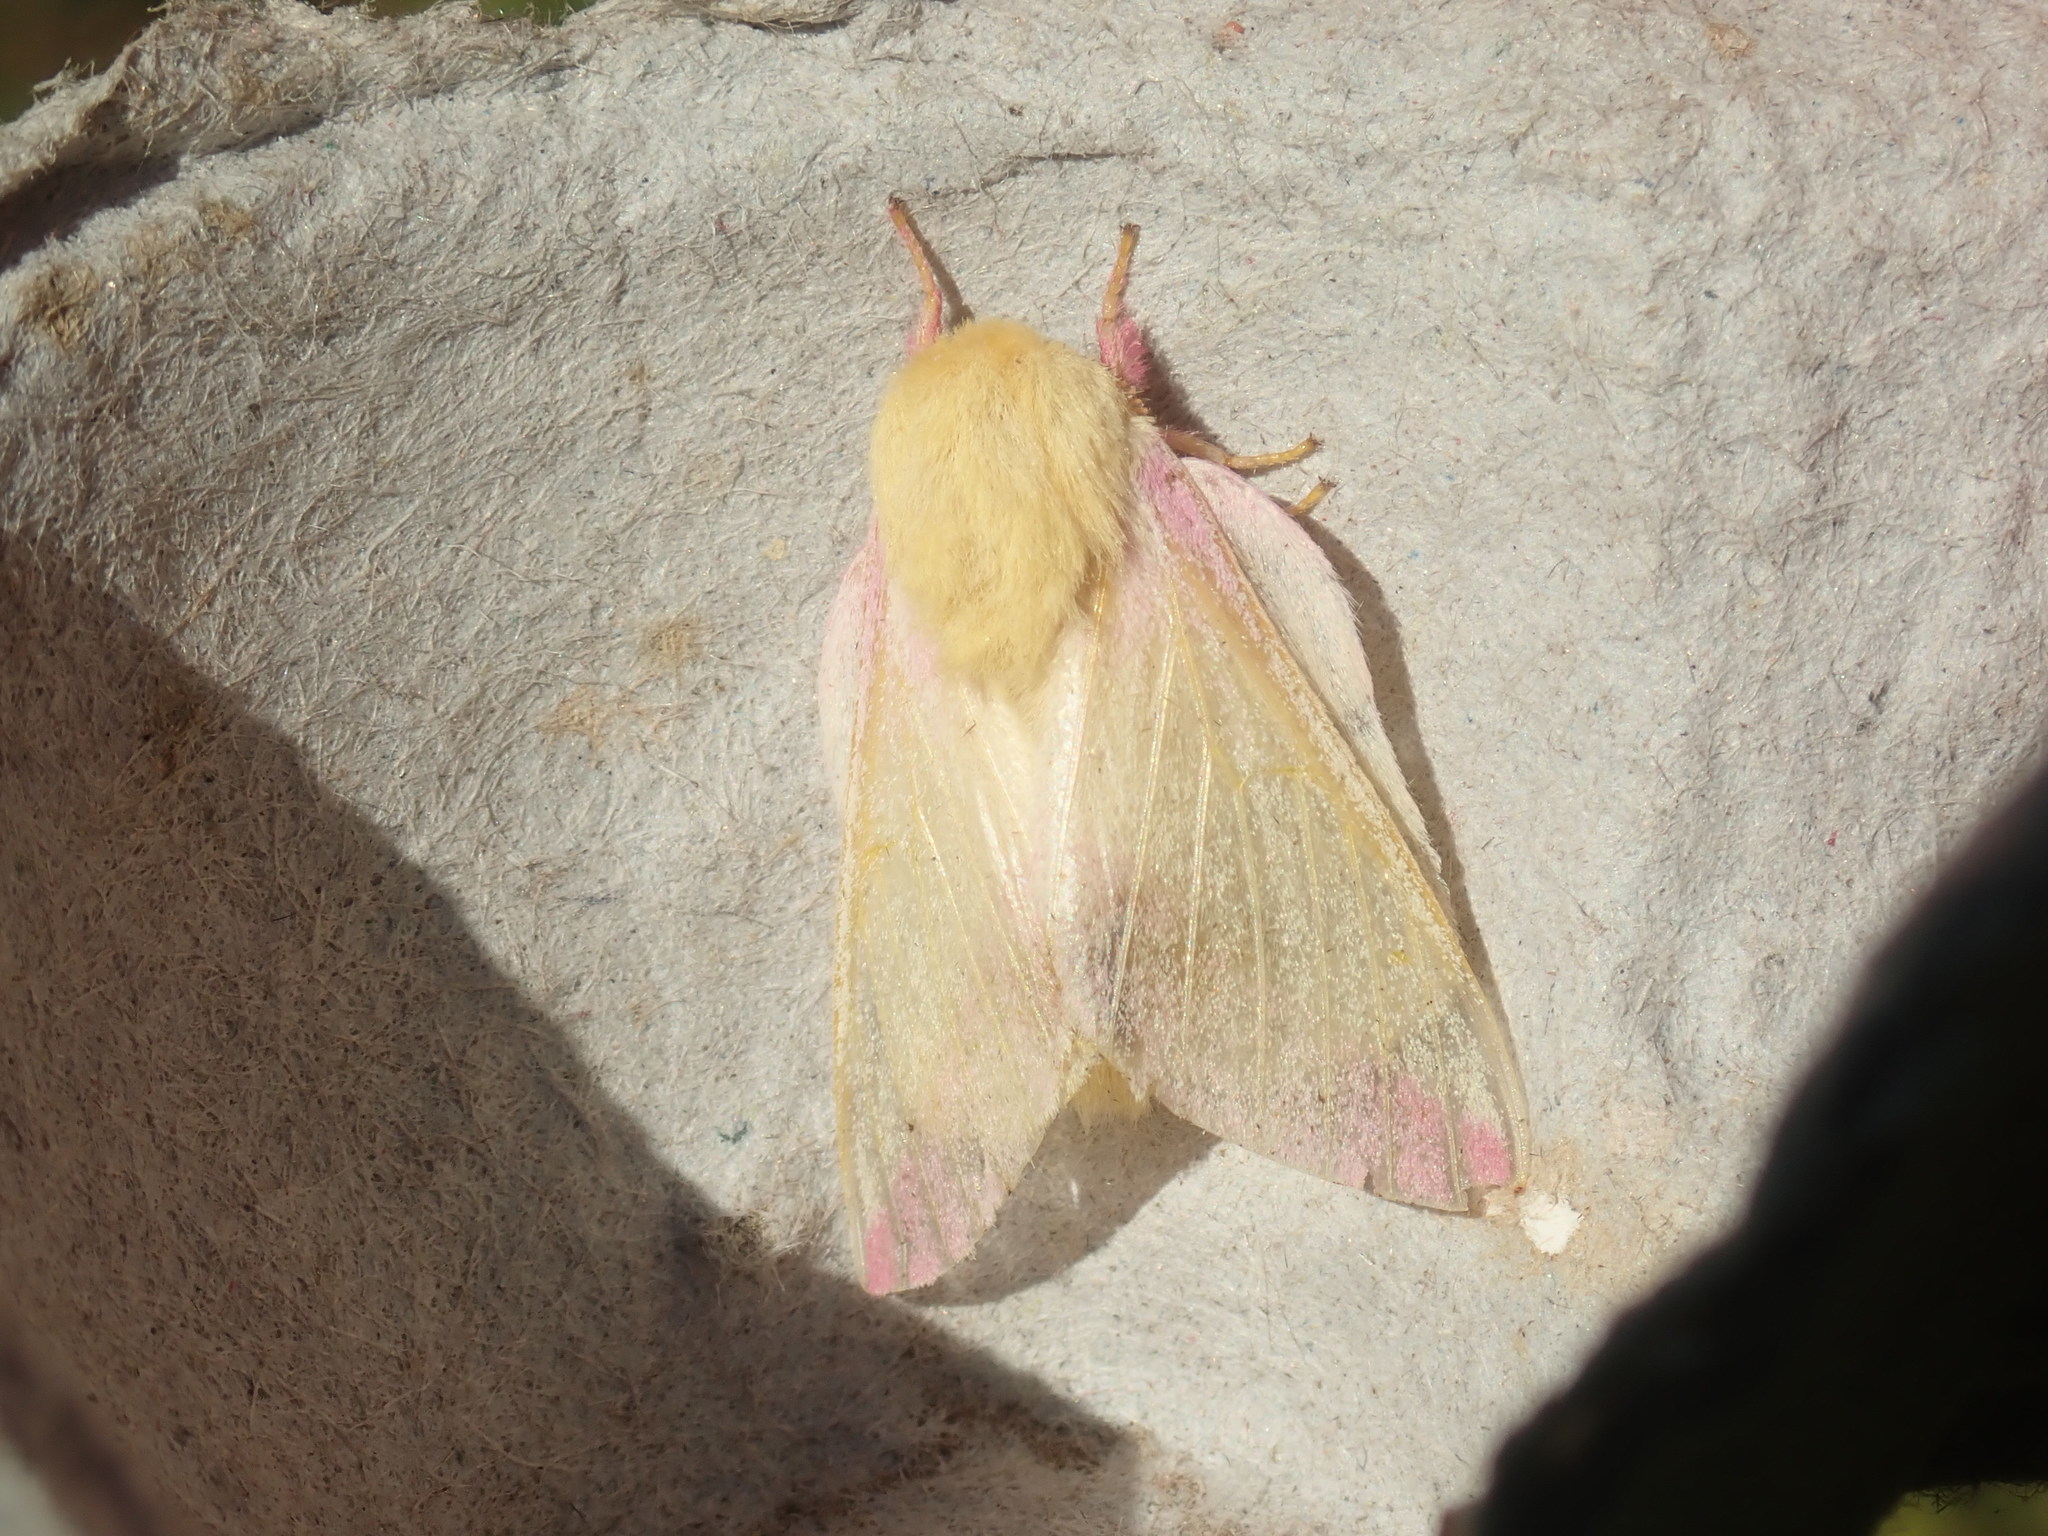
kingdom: Animalia
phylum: Arthropoda
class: Insecta
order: Lepidoptera
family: Saturniidae
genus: Dryocampa
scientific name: Dryocampa rubicunda
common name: Rosy maple moth
